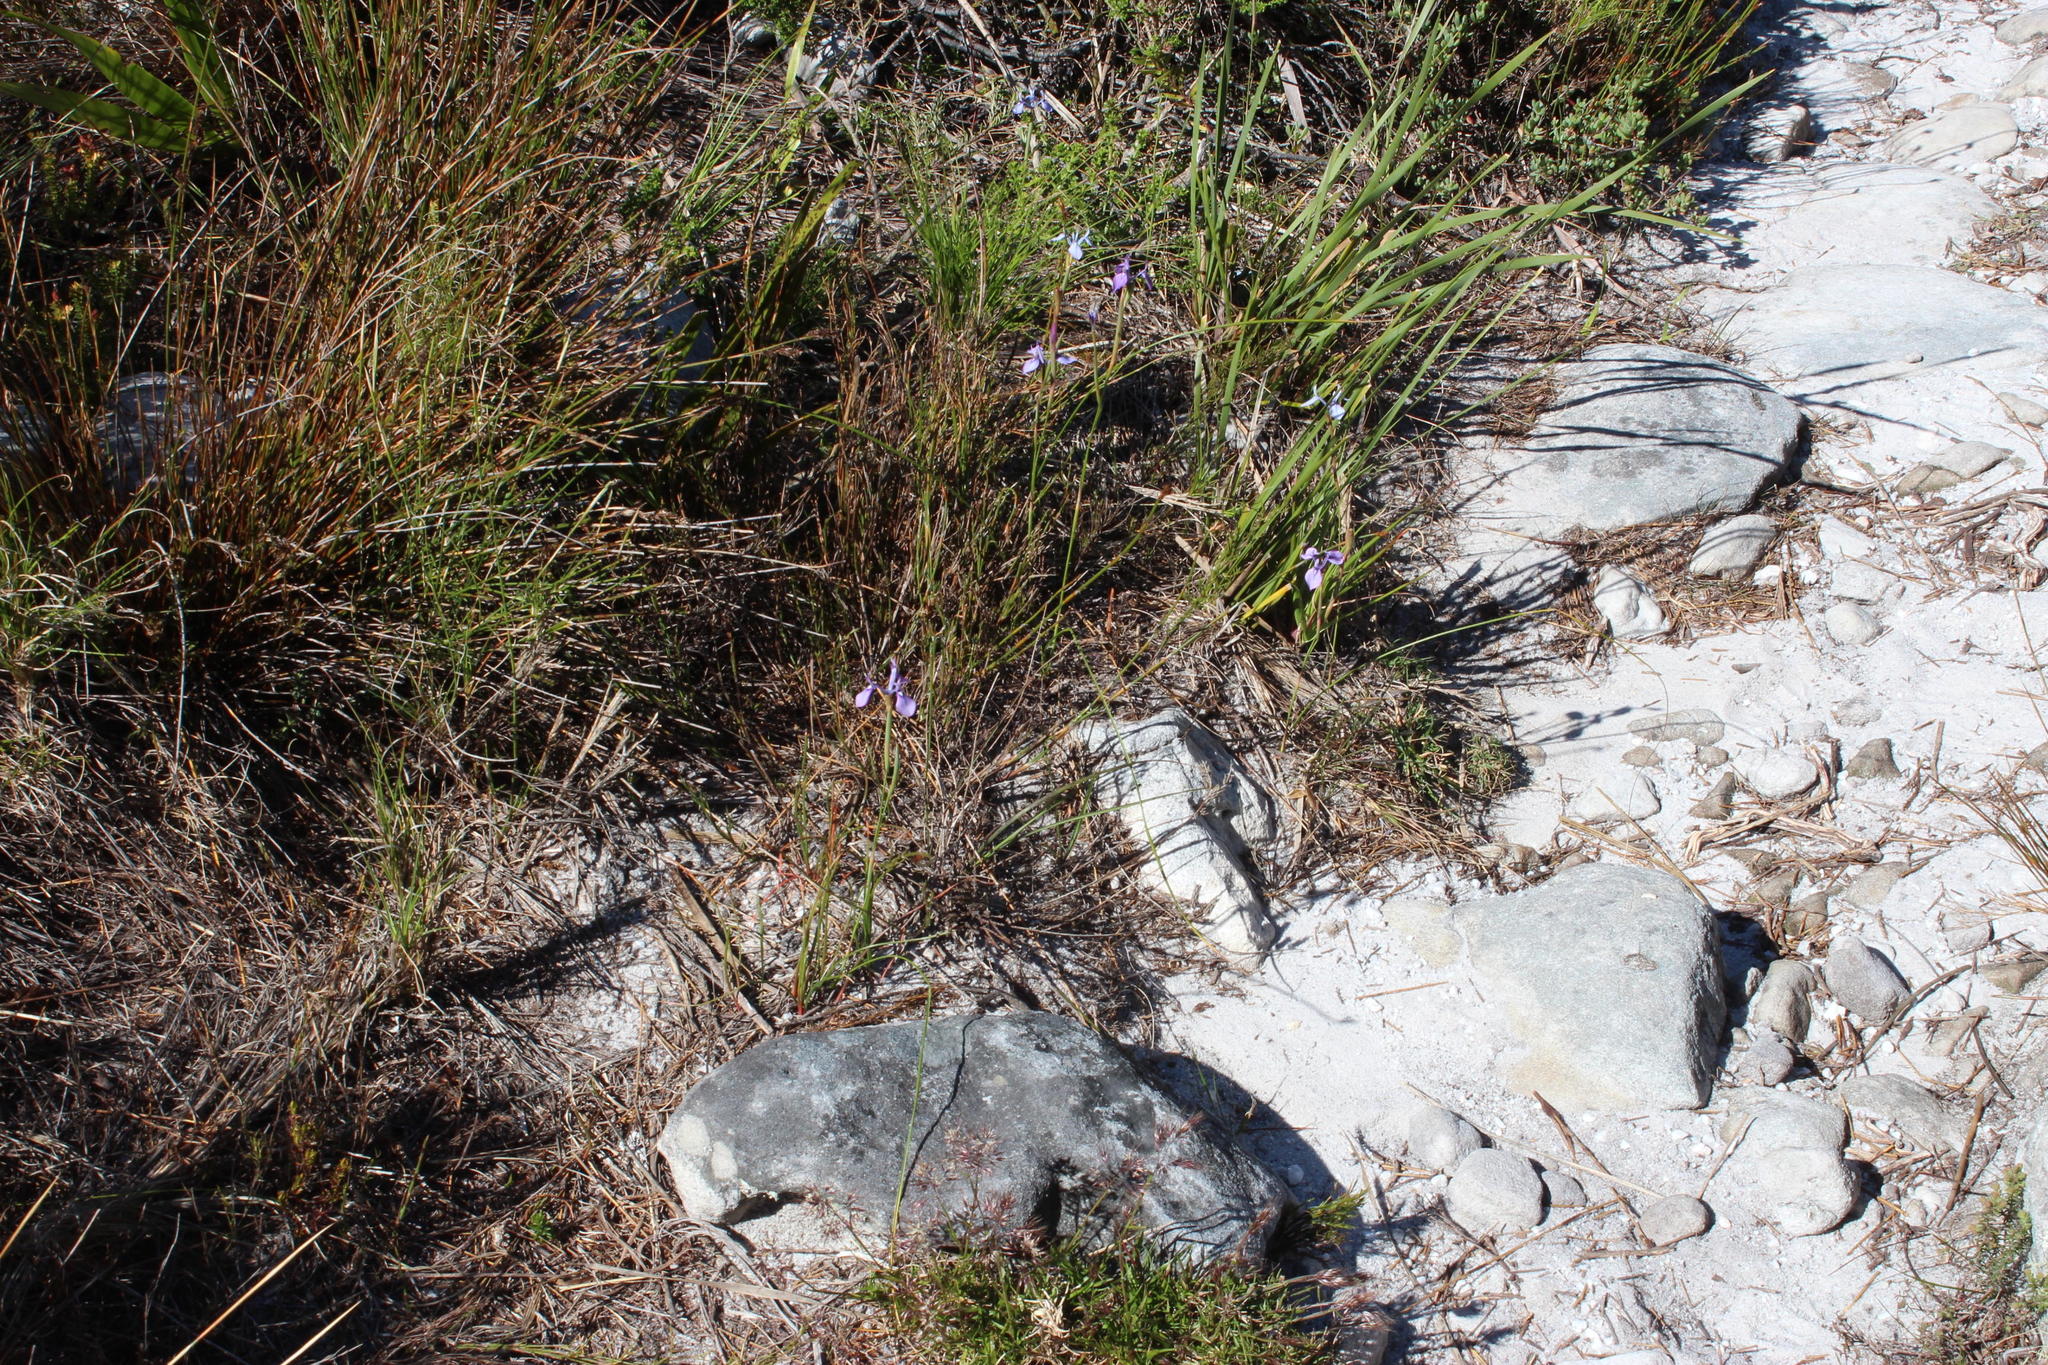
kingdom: Plantae
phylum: Tracheophyta
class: Liliopsida
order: Asparagales
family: Iridaceae
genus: Moraea
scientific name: Moraea tripetala
